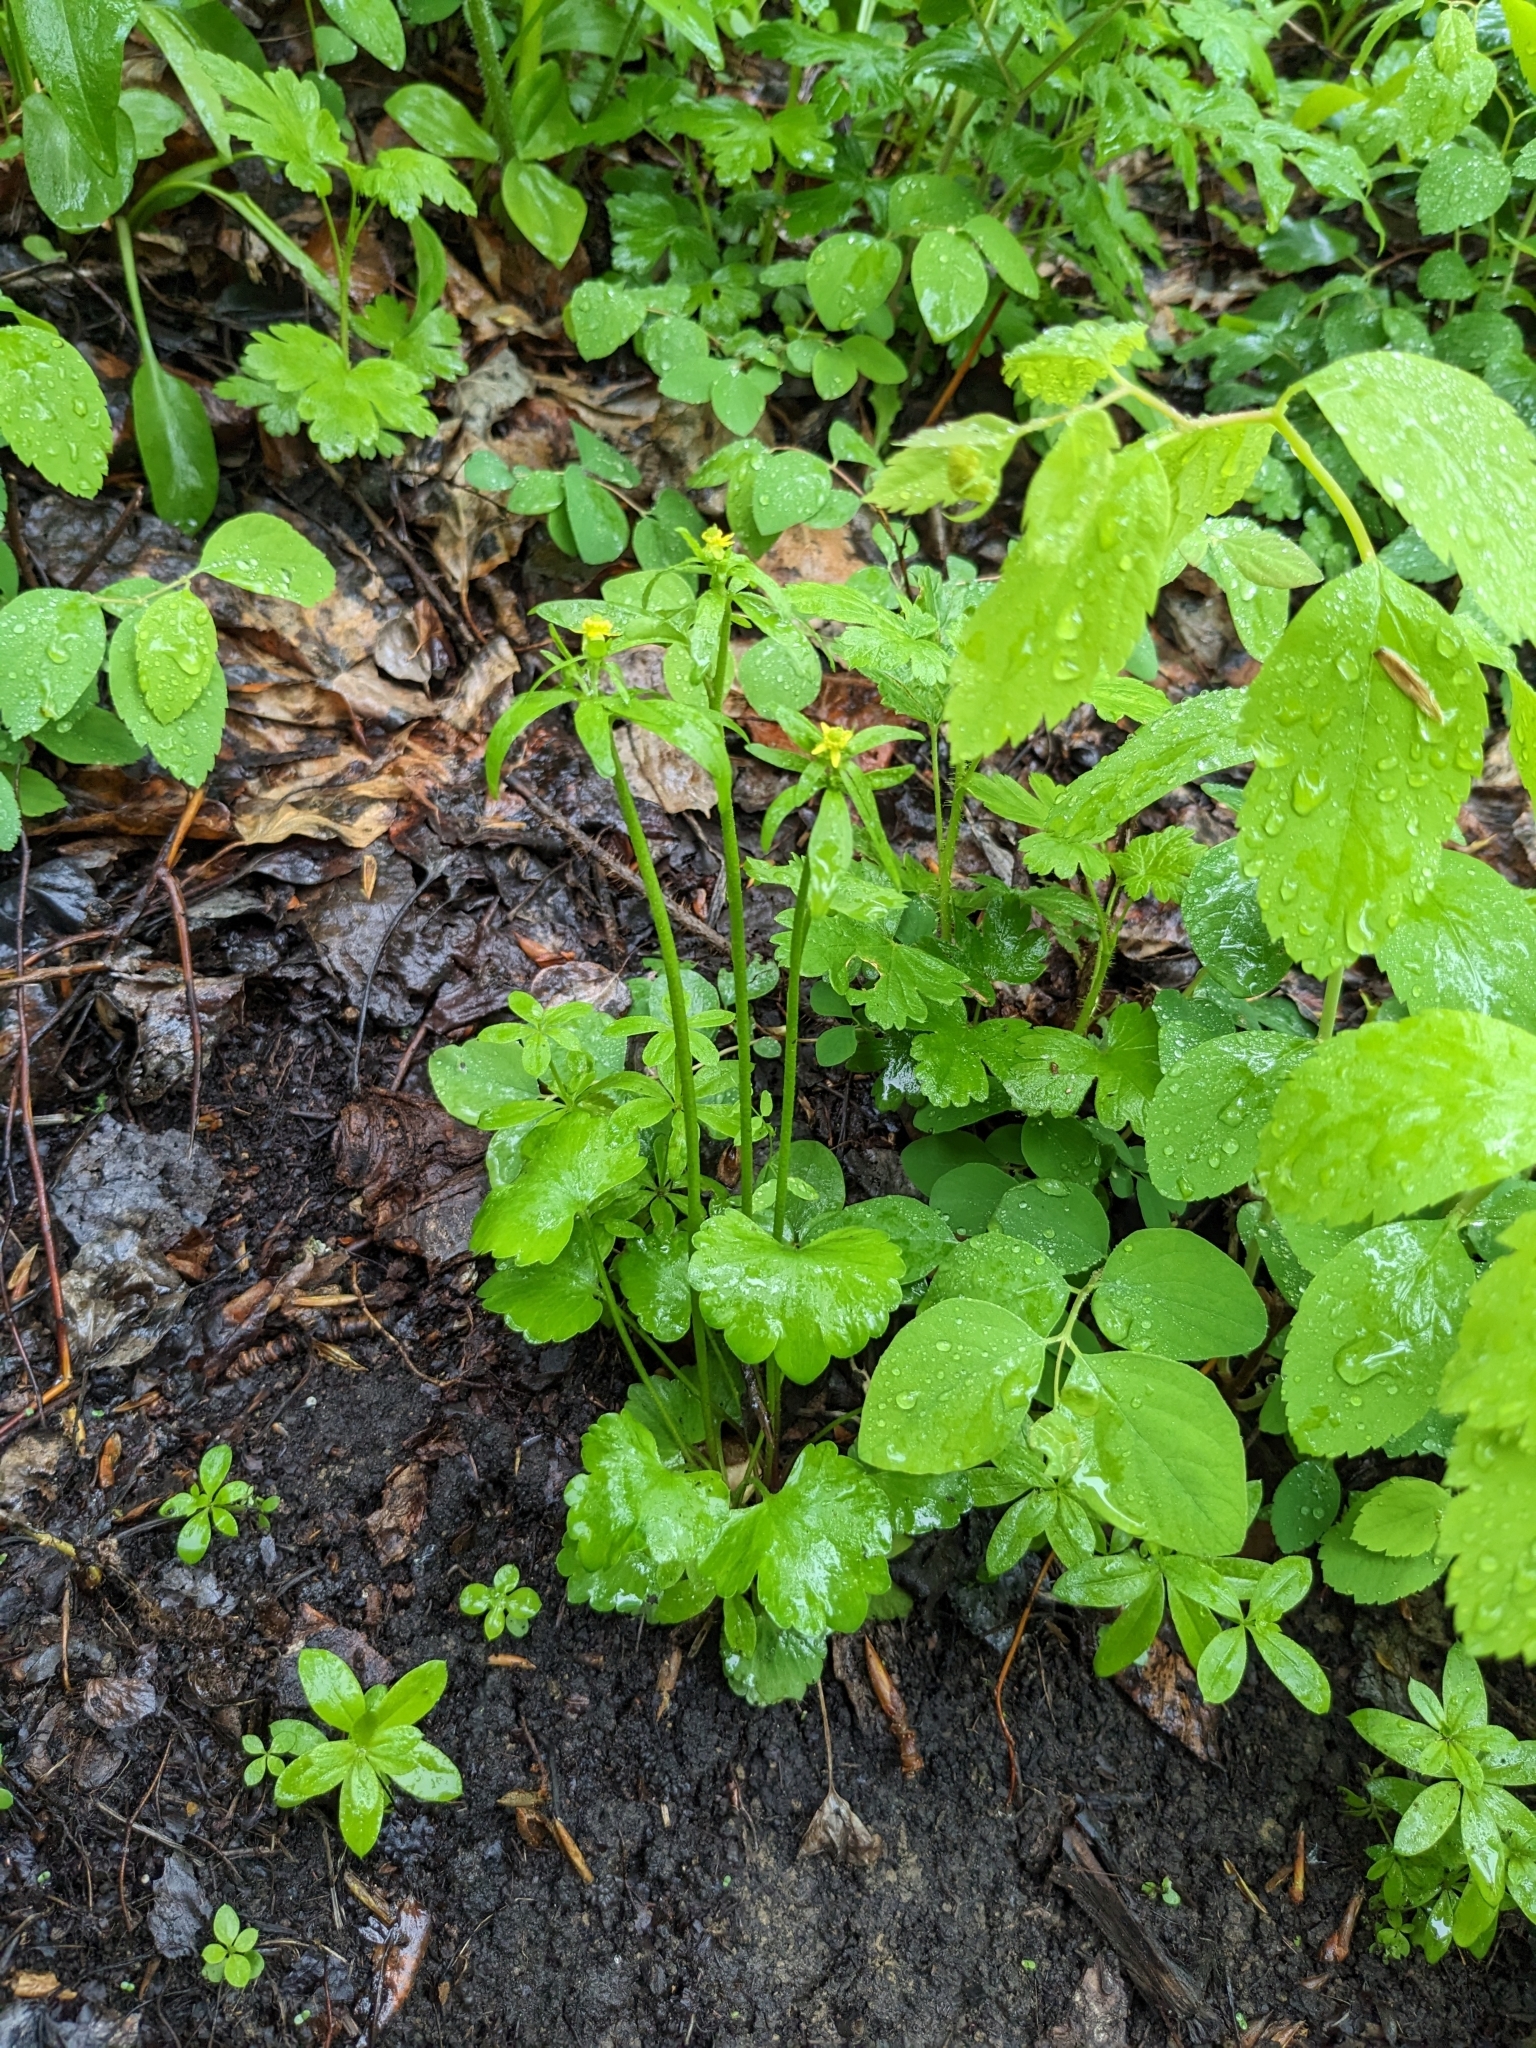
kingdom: Plantae
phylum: Tracheophyta
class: Magnoliopsida
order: Ranunculales
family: Ranunculaceae
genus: Ranunculus
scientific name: Ranunculus abortivus
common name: Early wood buttercup
